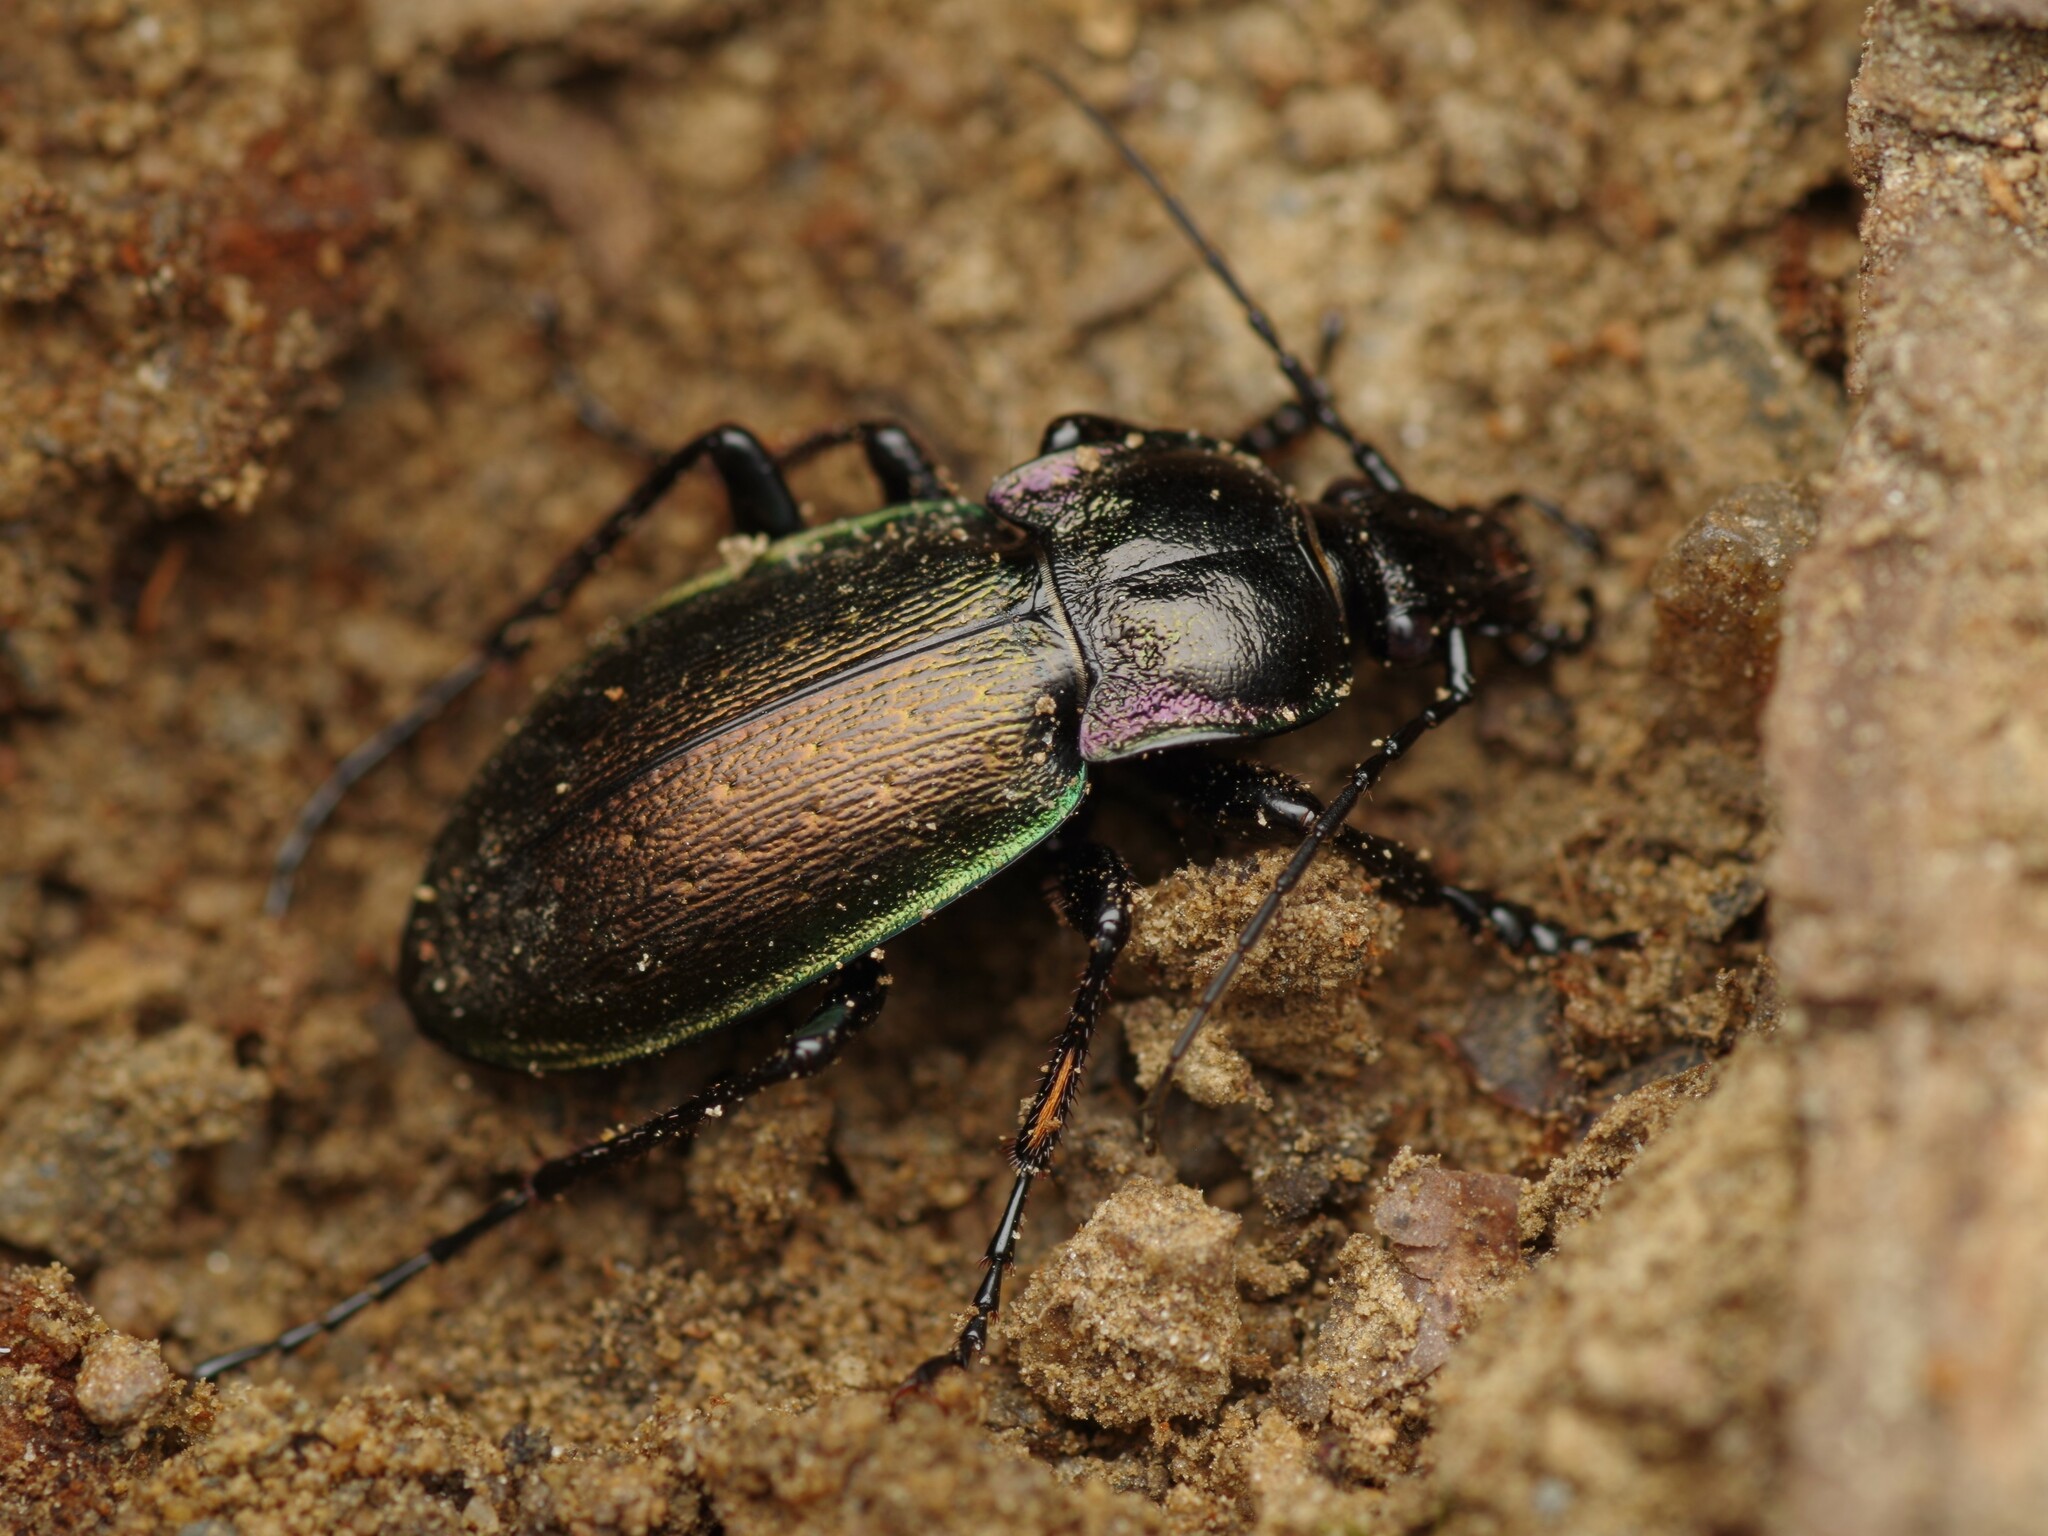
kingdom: Animalia
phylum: Arthropoda
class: Insecta
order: Coleoptera
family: Carabidae
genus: Carabus
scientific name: Carabus nemoralis
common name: European ground beetle
